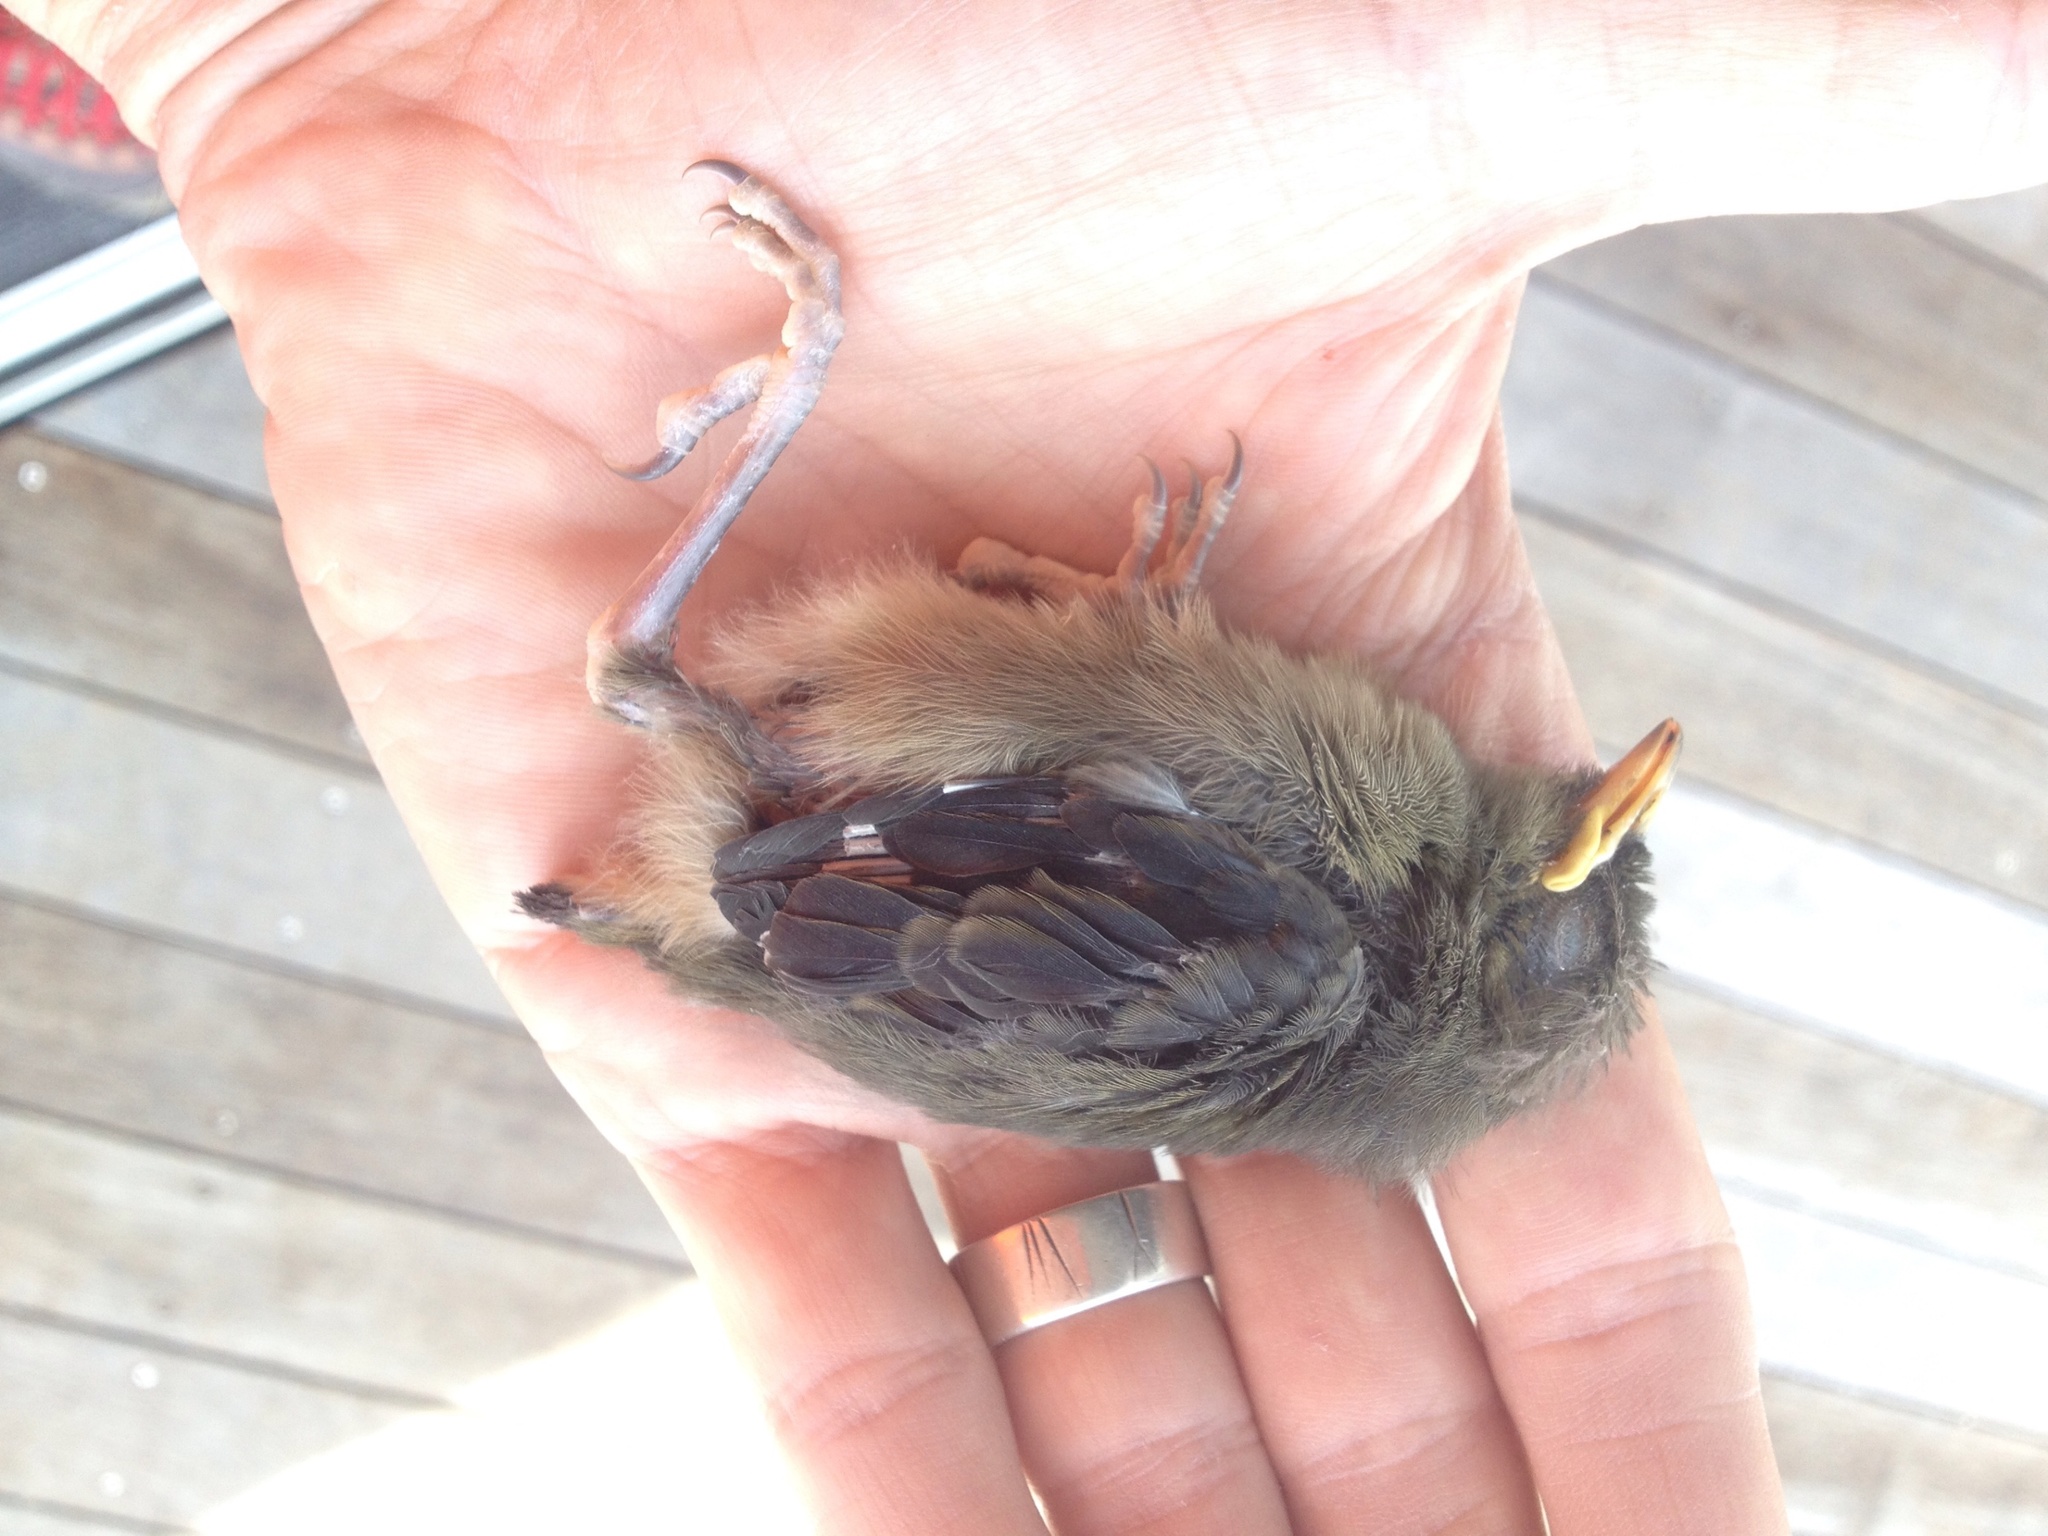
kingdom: Animalia
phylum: Chordata
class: Aves
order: Passeriformes
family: Meliphagidae
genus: Anthornis
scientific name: Anthornis melanura
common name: New zealand bellbird
